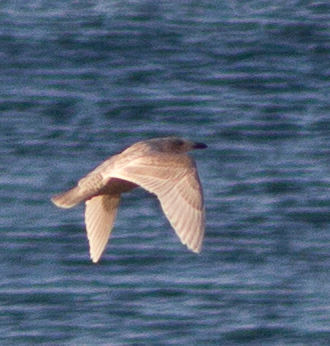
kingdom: Animalia
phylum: Chordata
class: Aves
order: Charadriiformes
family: Laridae
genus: Larus
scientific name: Larus glaucescens
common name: Glaucous-winged gull
